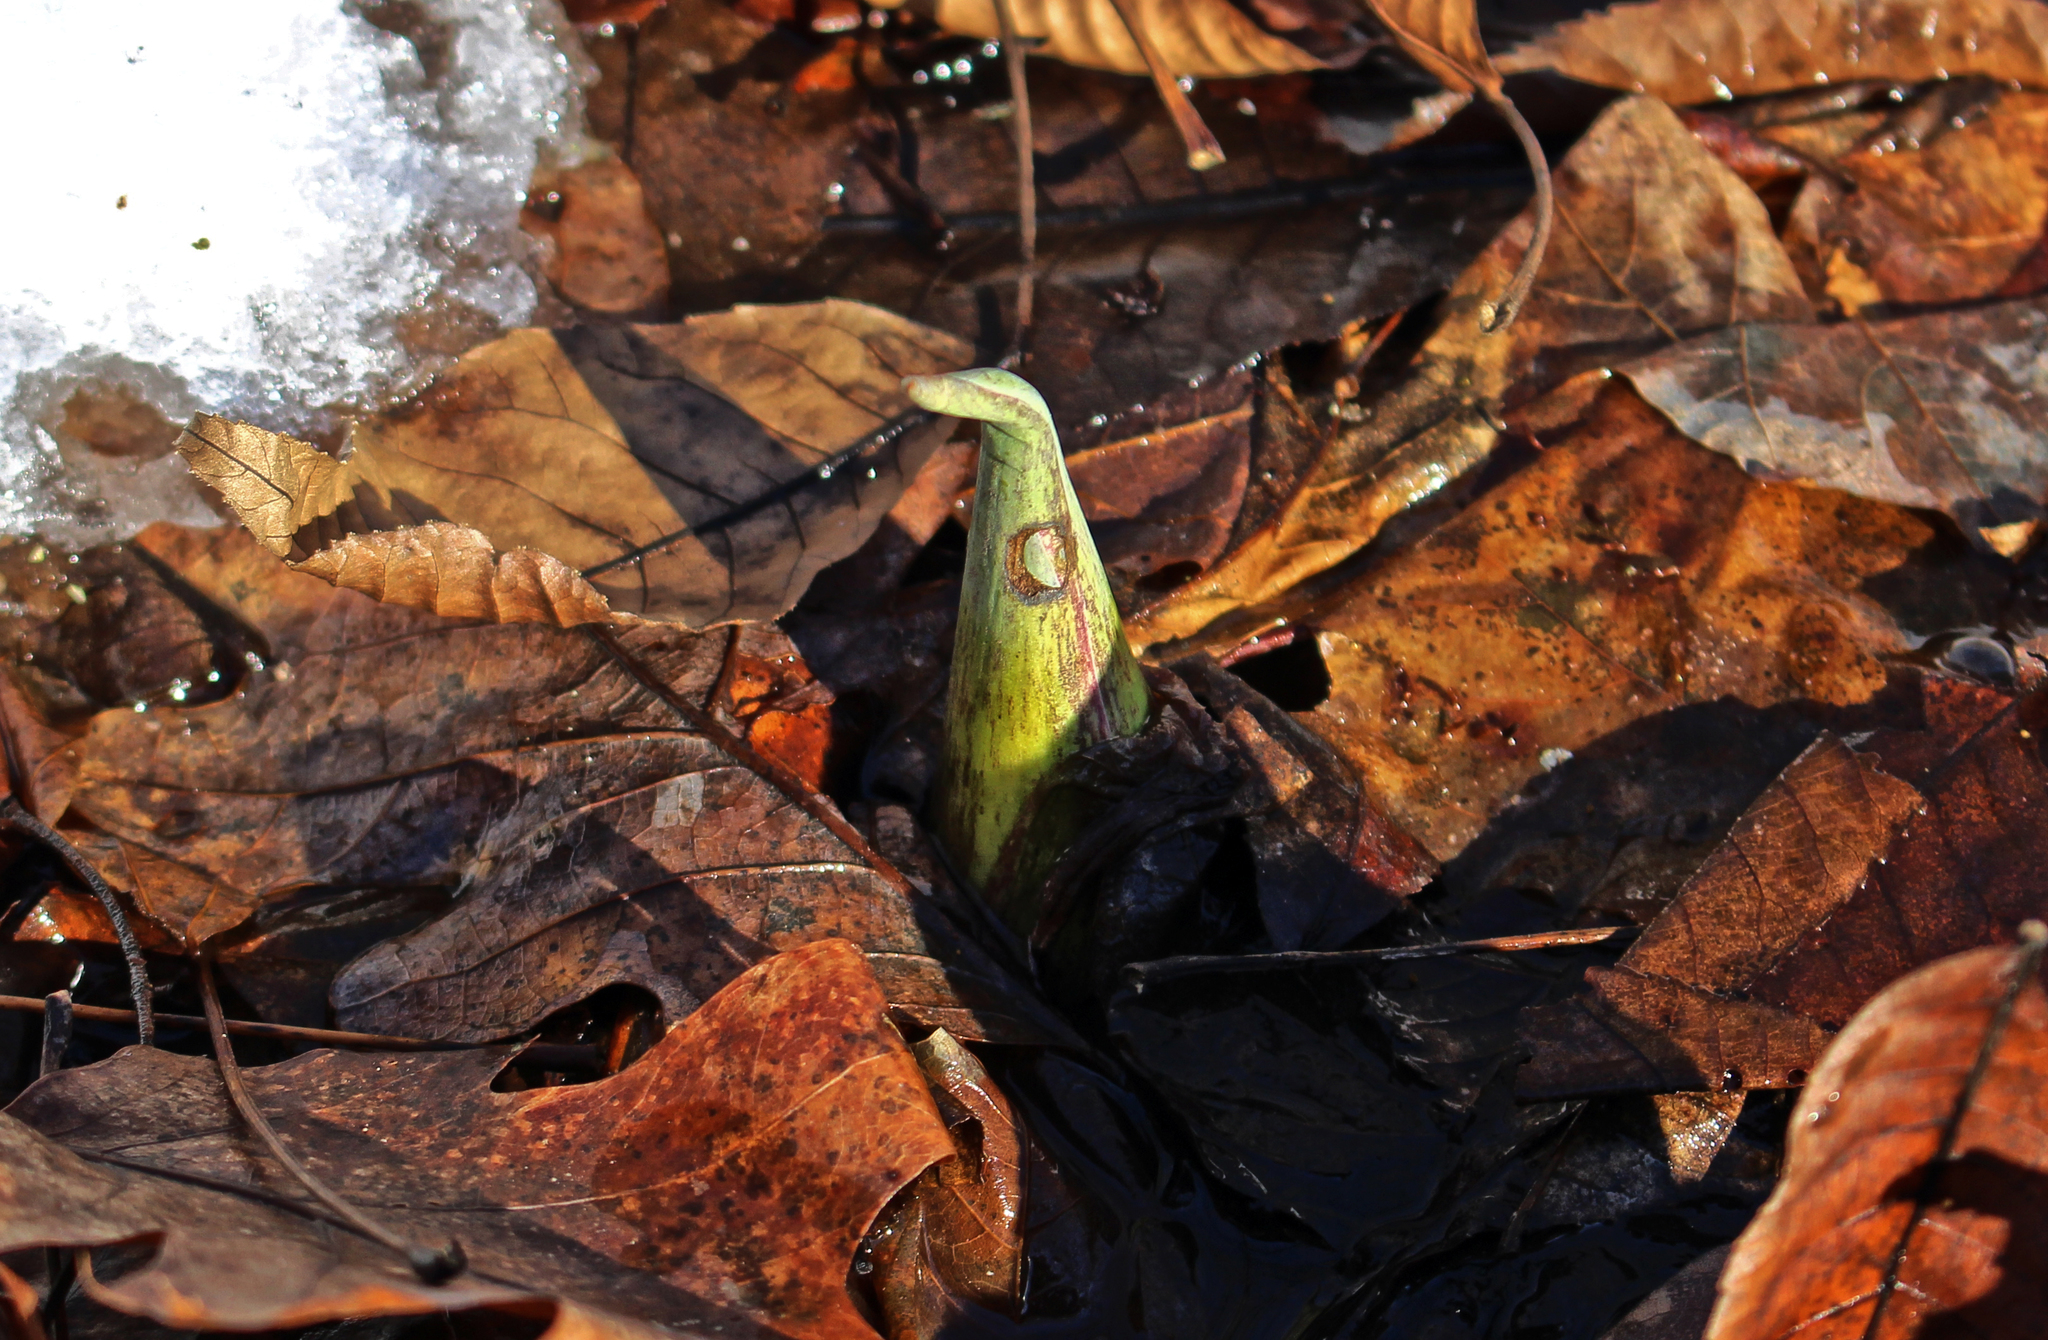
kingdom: Plantae
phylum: Tracheophyta
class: Liliopsida
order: Alismatales
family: Araceae
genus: Symplocarpus
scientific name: Symplocarpus foetidus
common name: Eastern skunk cabbage
